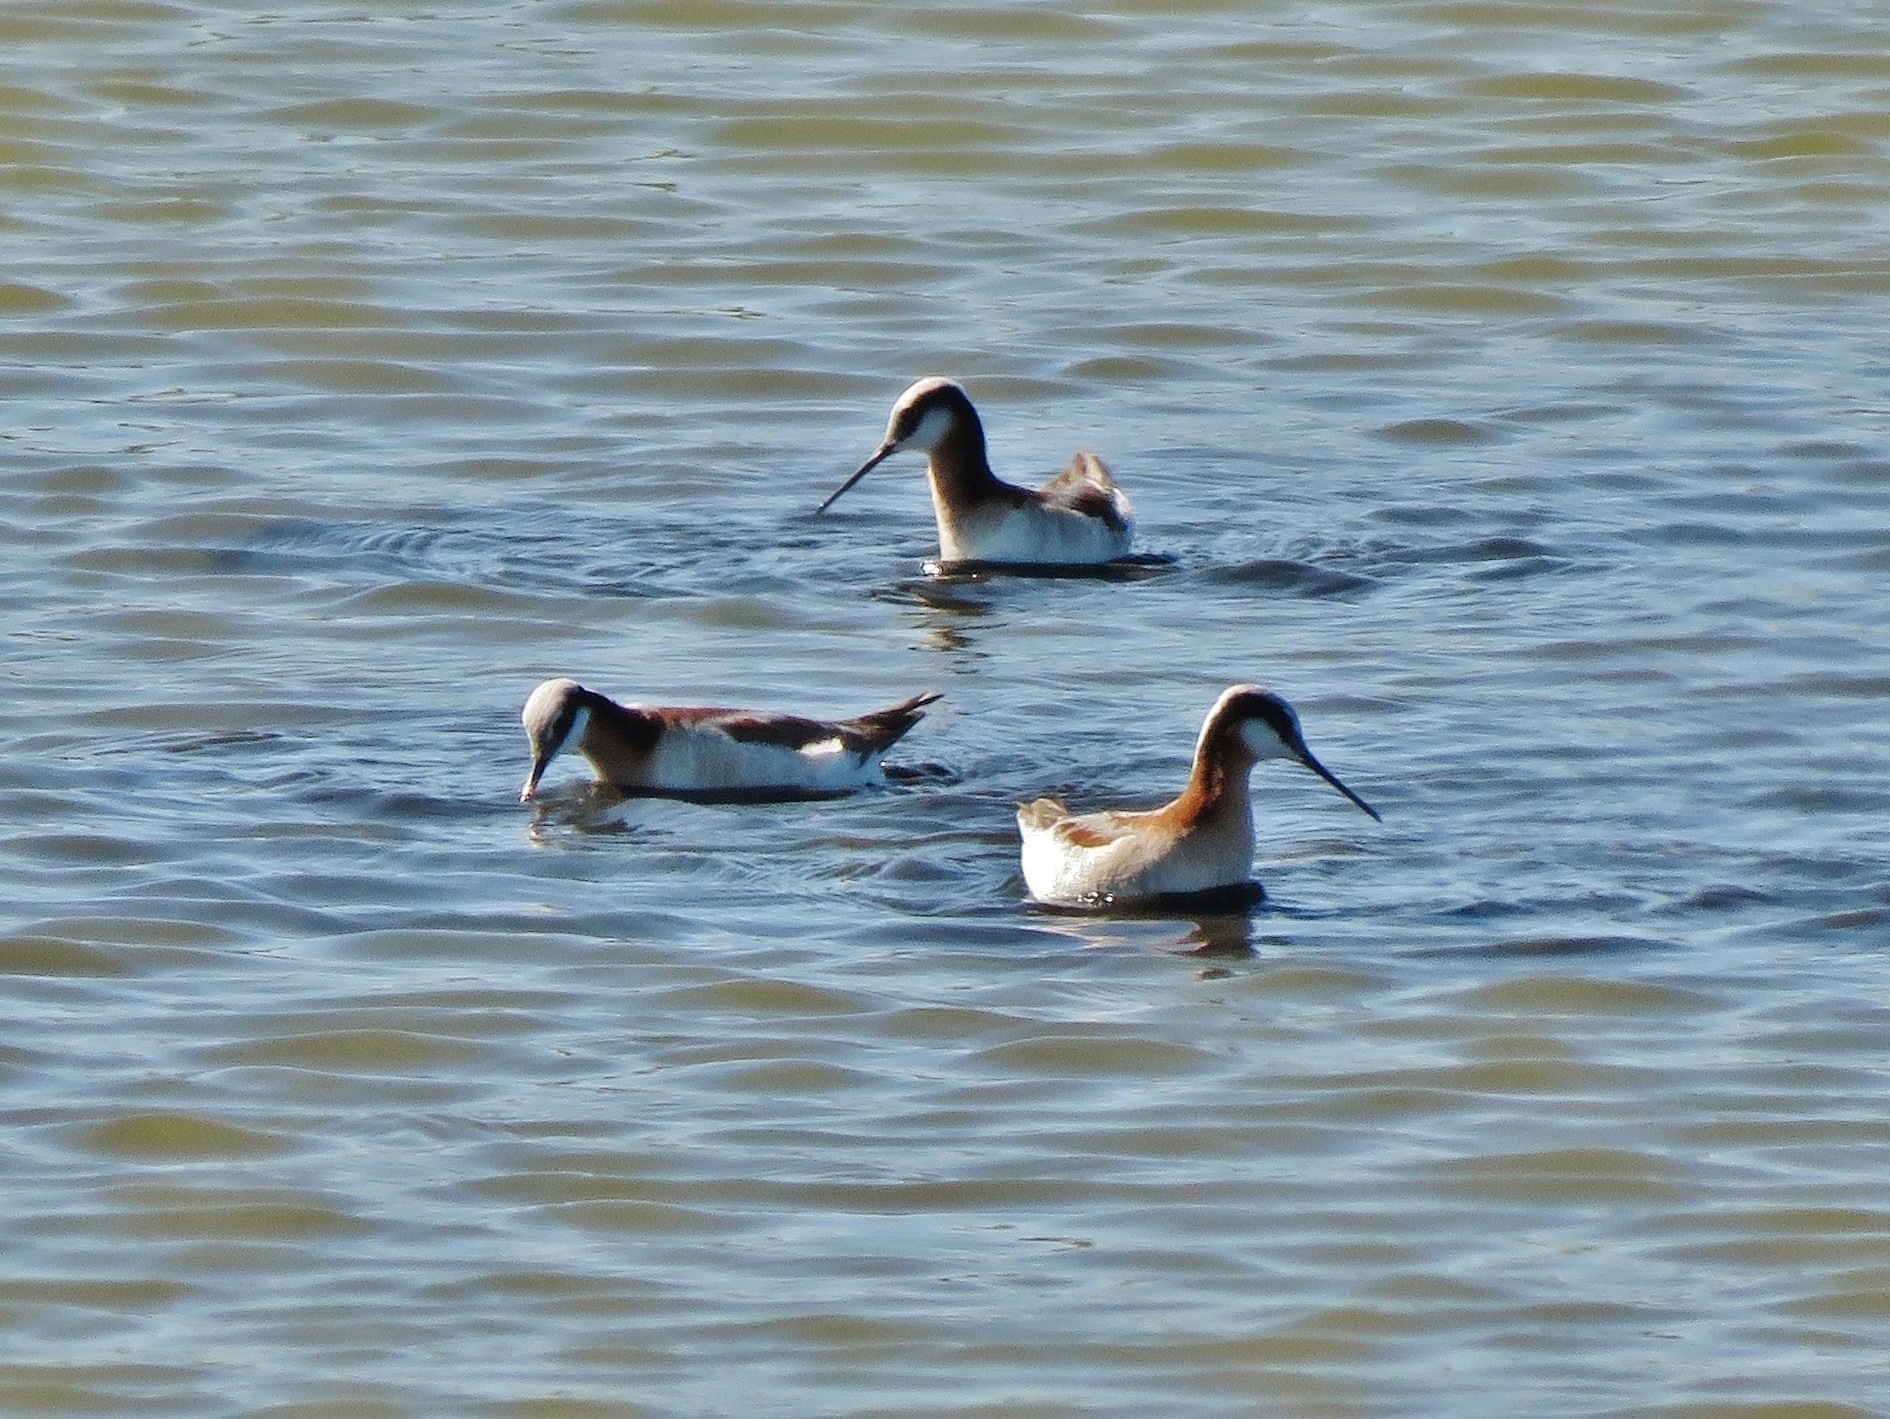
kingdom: Animalia
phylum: Chordata
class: Aves
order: Charadriiformes
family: Scolopacidae
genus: Phalaropus
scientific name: Phalaropus tricolor
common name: Wilson's phalarope
